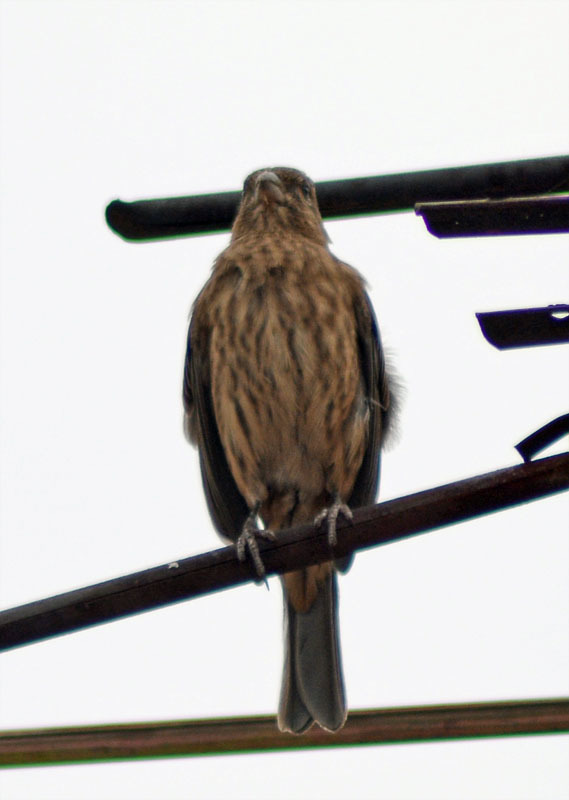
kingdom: Animalia
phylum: Chordata
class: Aves
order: Passeriformes
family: Fringillidae
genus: Haemorhous
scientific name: Haemorhous mexicanus
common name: House finch
